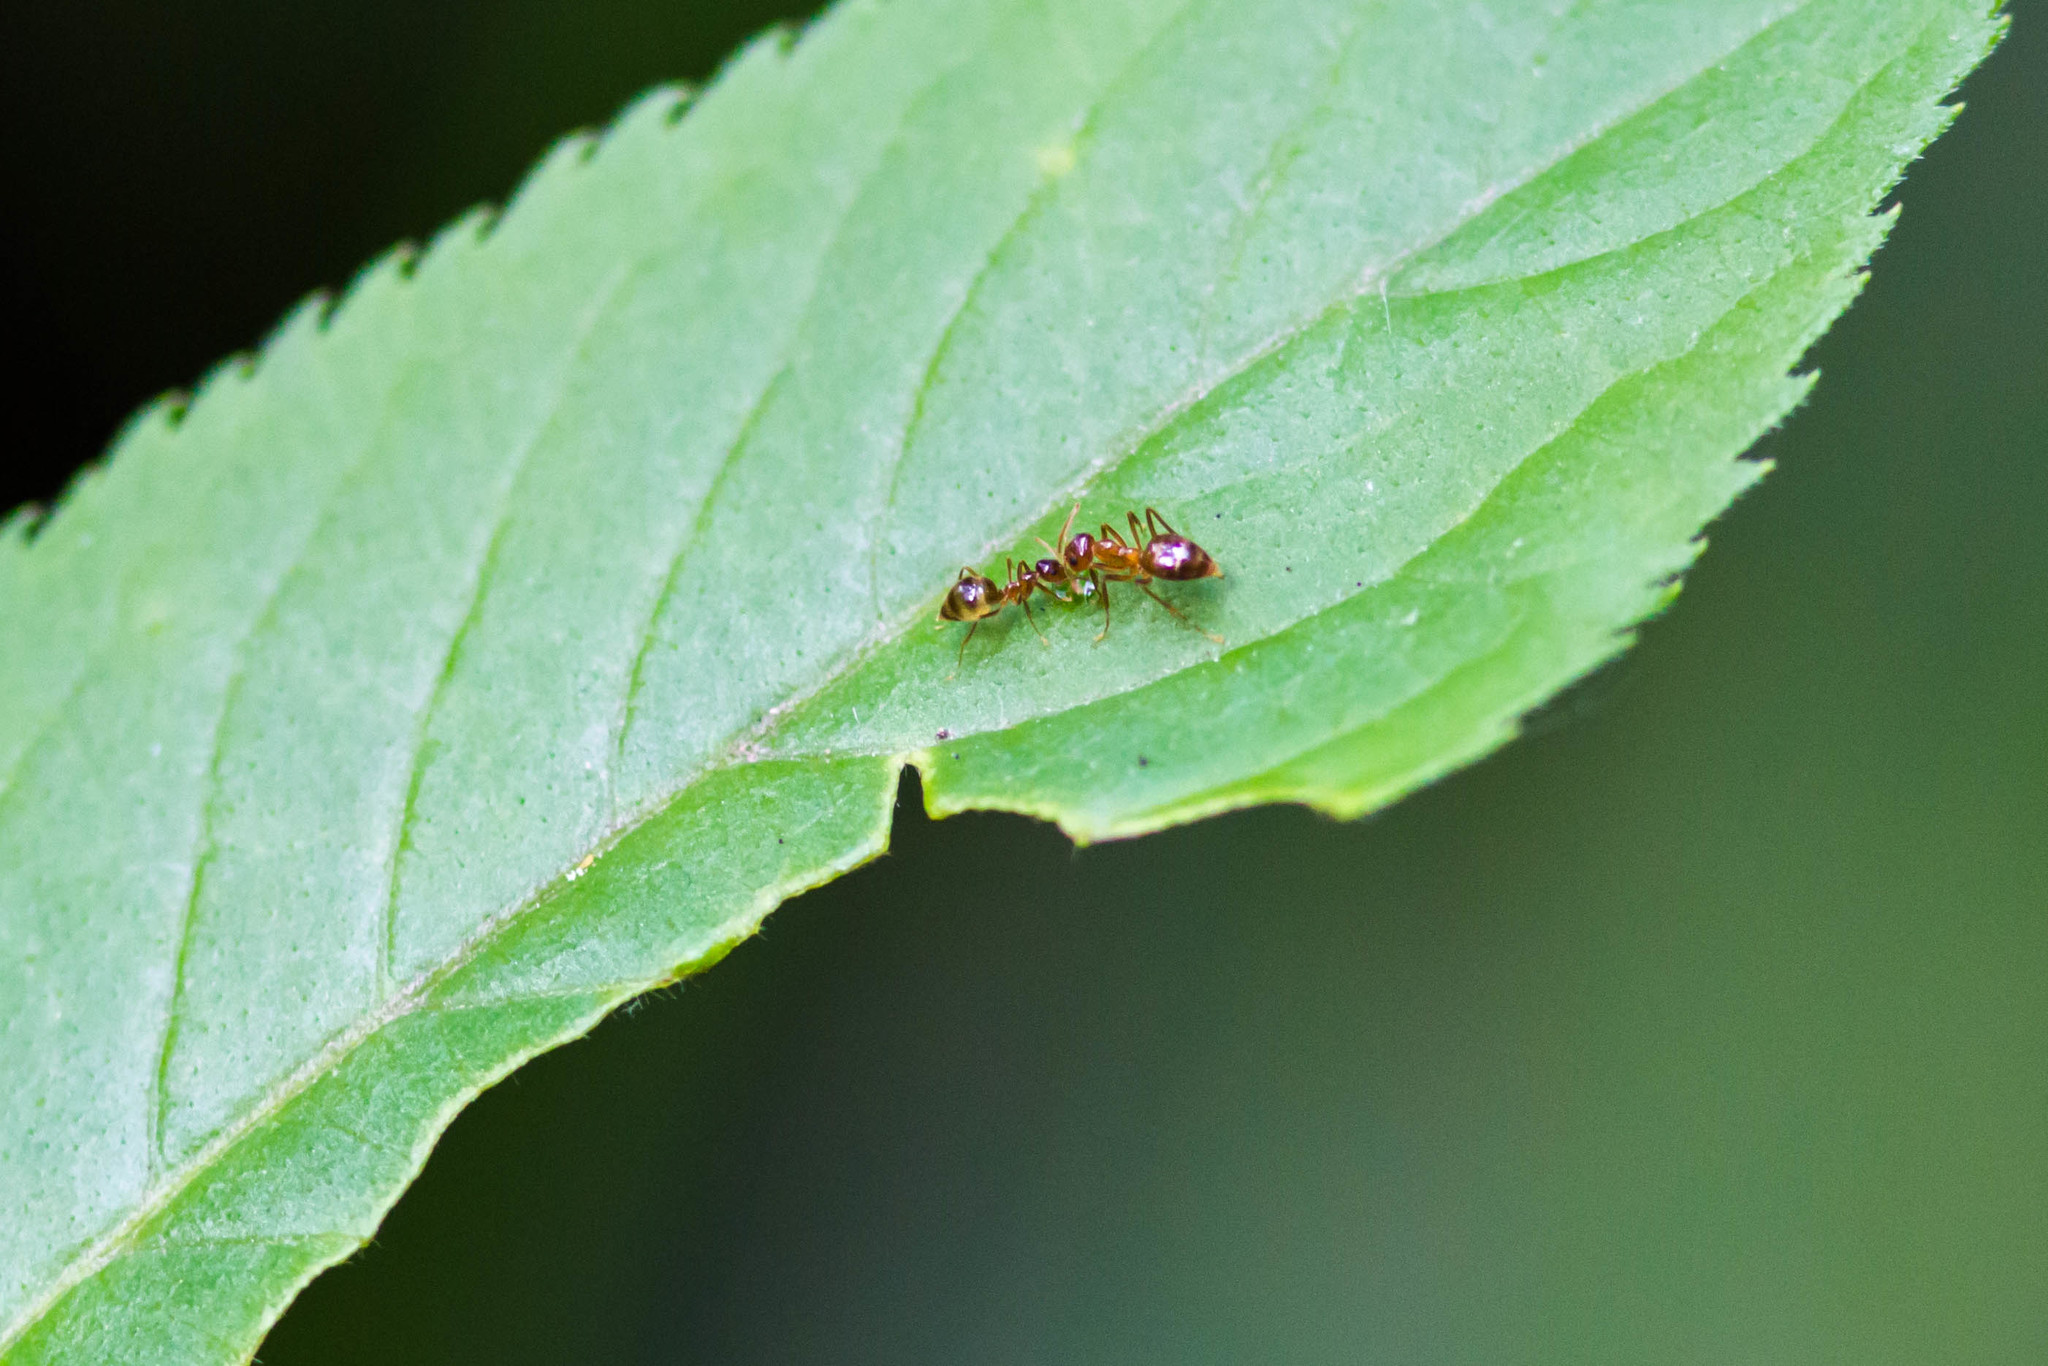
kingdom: Animalia
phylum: Arthropoda
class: Insecta
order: Hymenoptera
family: Formicidae
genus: Prenolepis
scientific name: Prenolepis imparis
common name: Small honey ant
